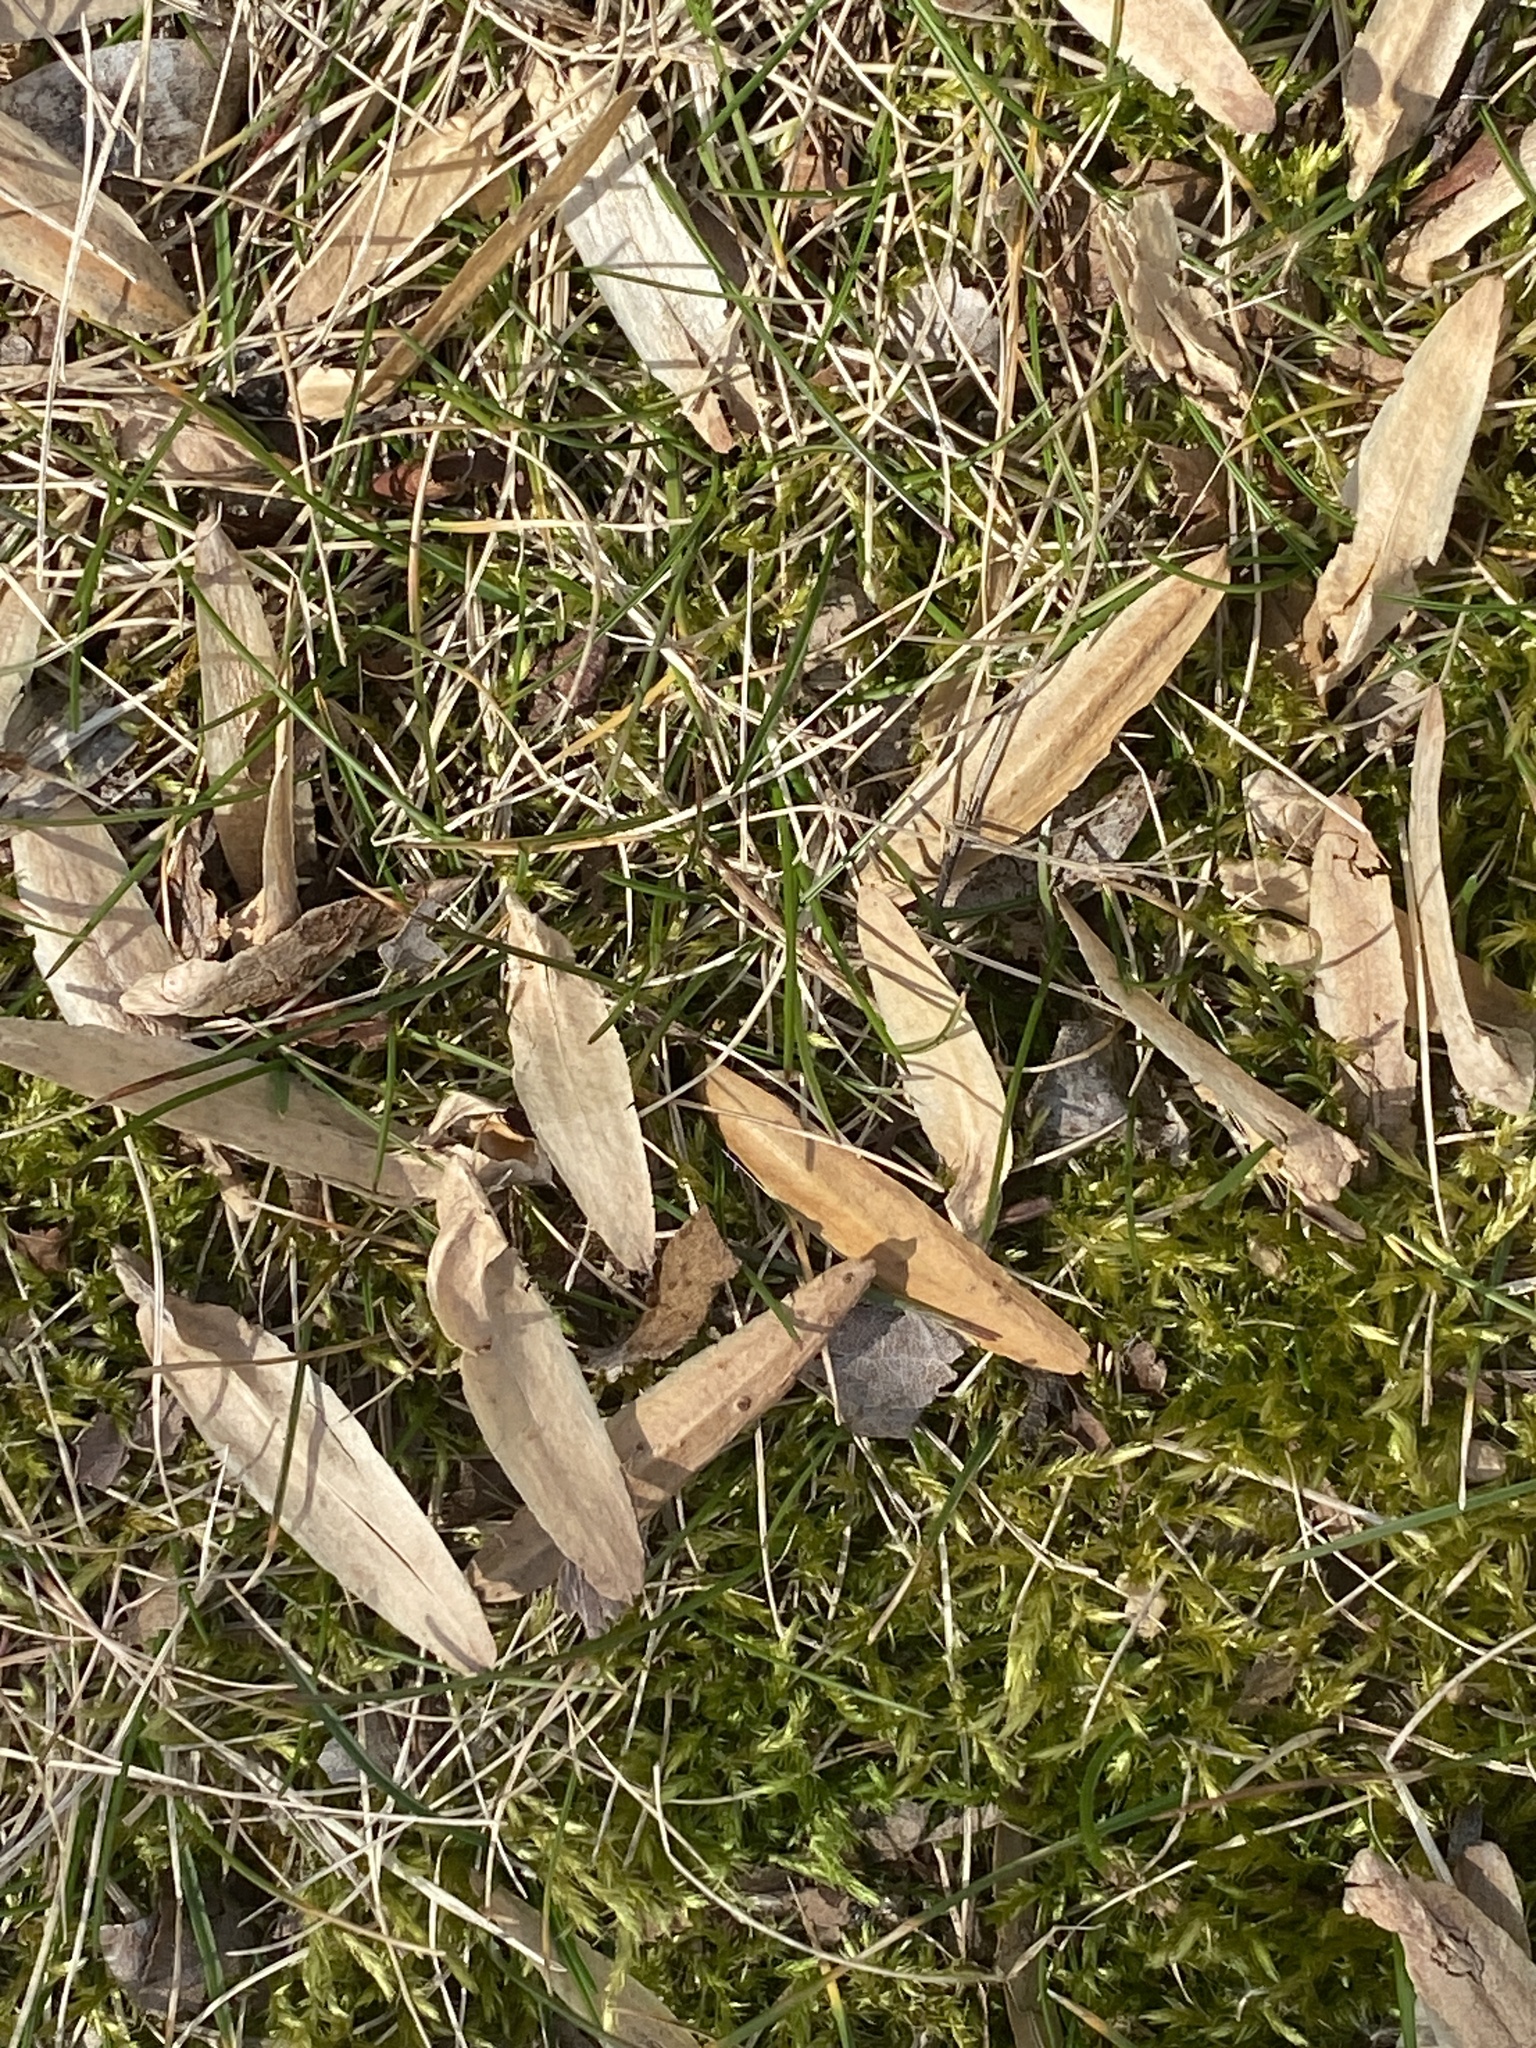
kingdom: Plantae
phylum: Tracheophyta
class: Magnoliopsida
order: Magnoliales
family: Magnoliaceae
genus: Liriodendron
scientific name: Liriodendron tulipifera
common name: Tulip tree
